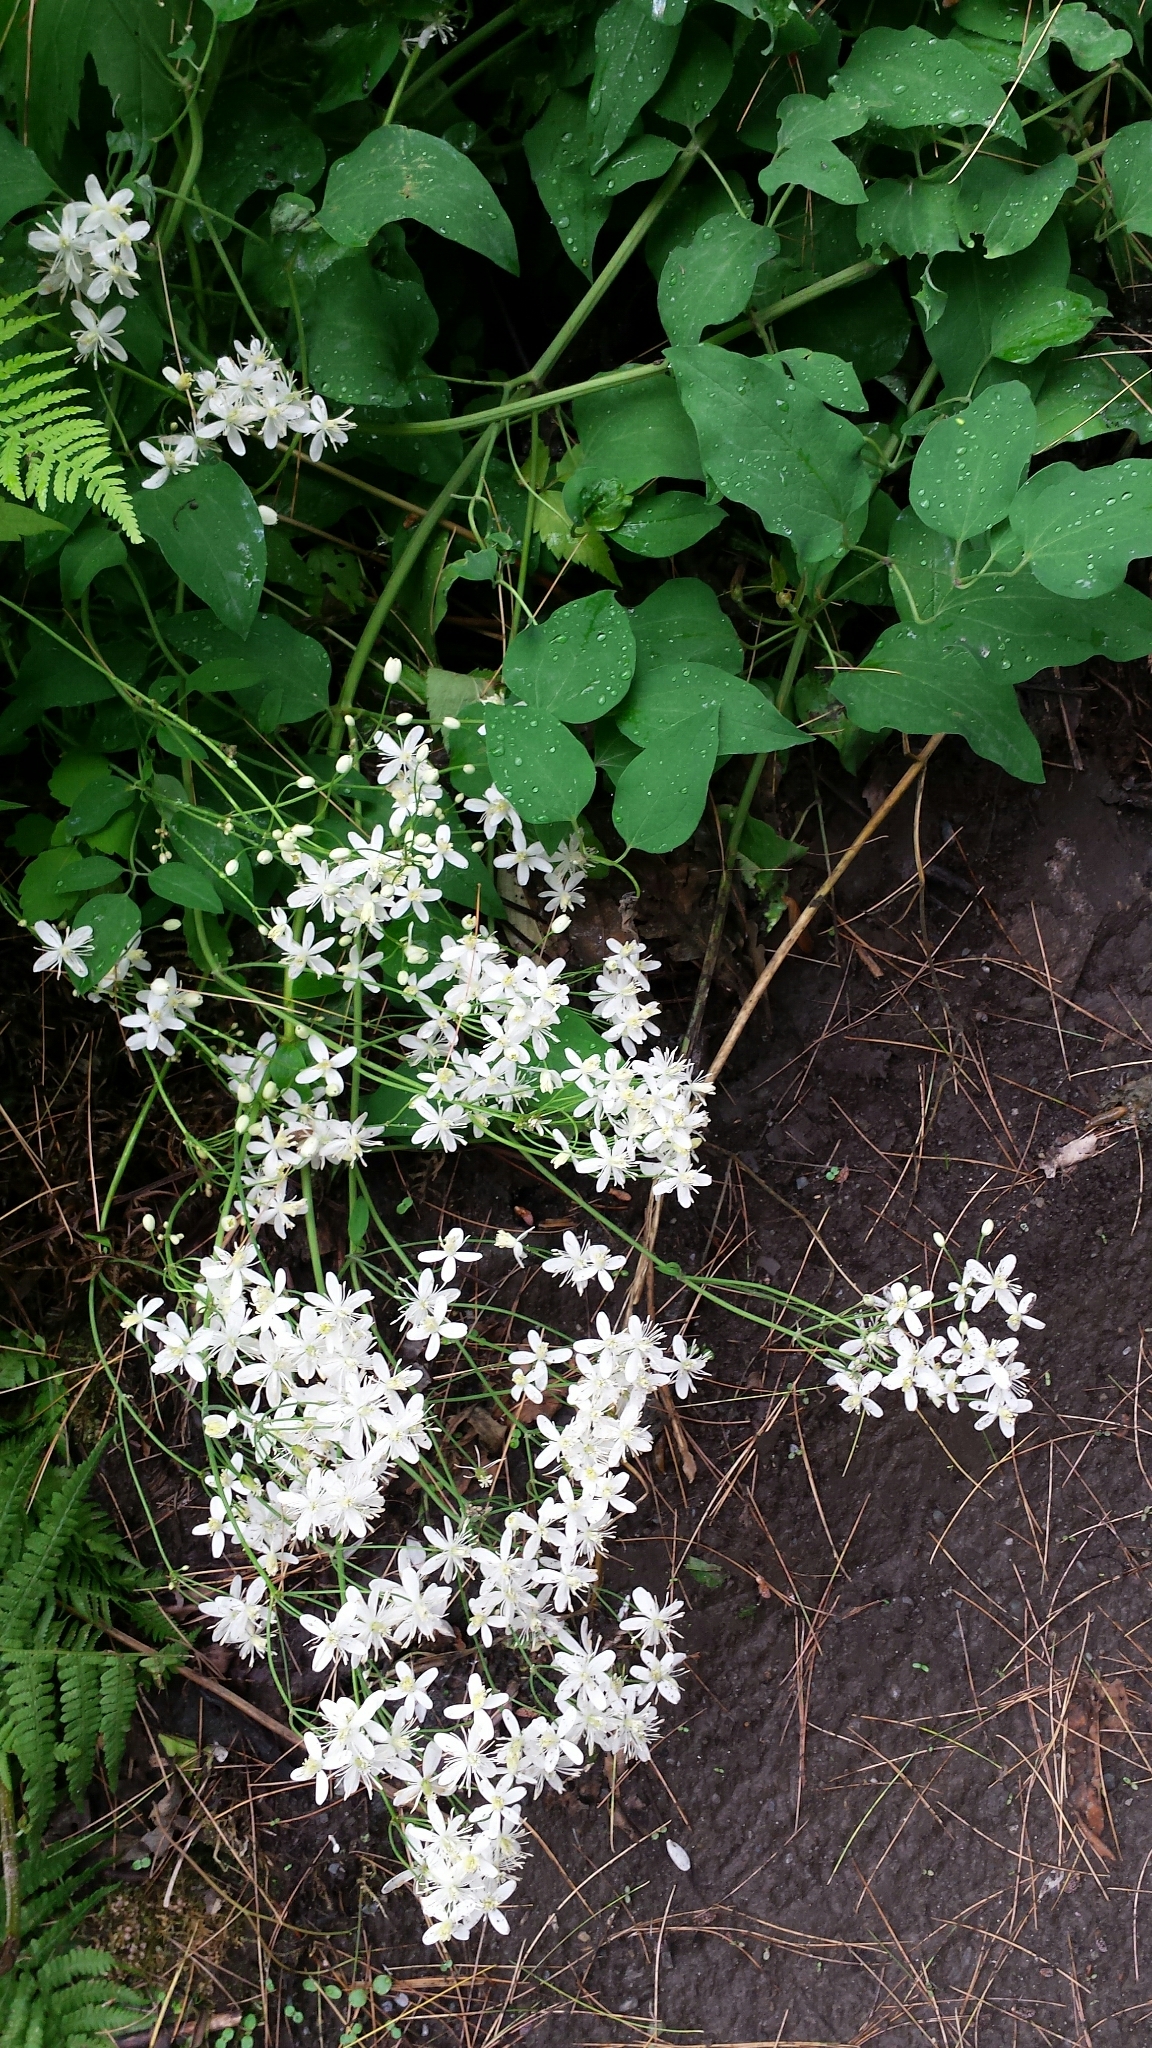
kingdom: Plantae
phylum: Tracheophyta
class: Magnoliopsida
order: Ranunculales
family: Ranunculaceae
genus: Clematis
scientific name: Clematis terniflora
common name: Sweet autumn clematis
